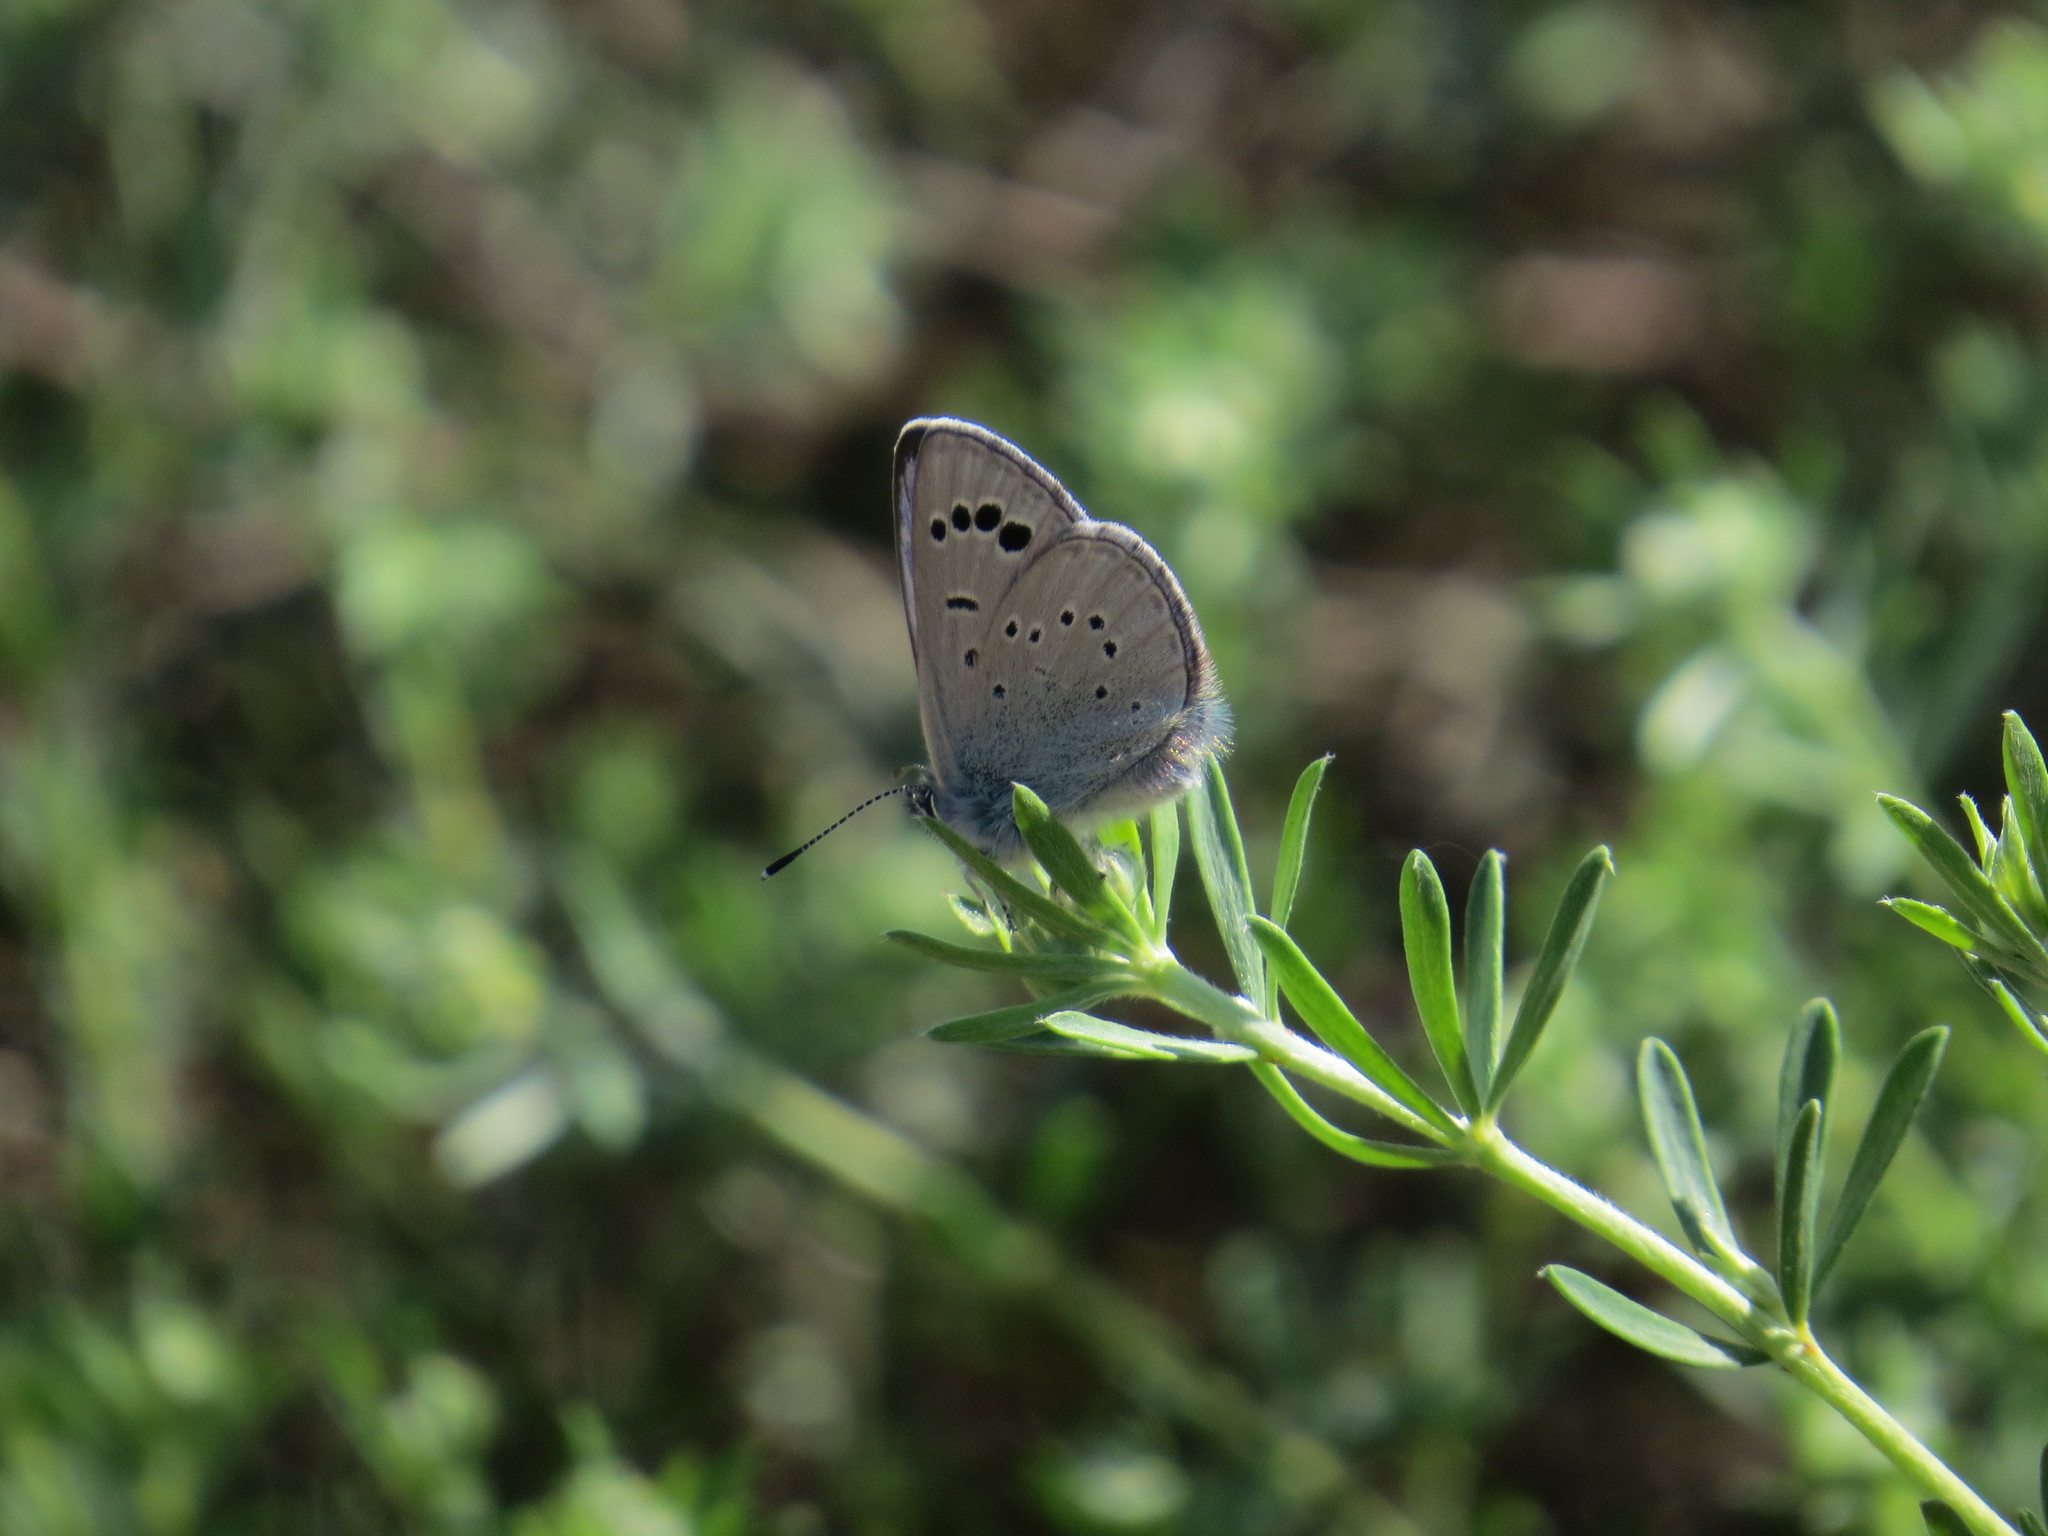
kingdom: Animalia
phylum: Arthropoda
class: Insecta
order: Lepidoptera
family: Lycaenidae
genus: Glaucopsyche
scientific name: Glaucopsyche melanops
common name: Black-eyed blue
